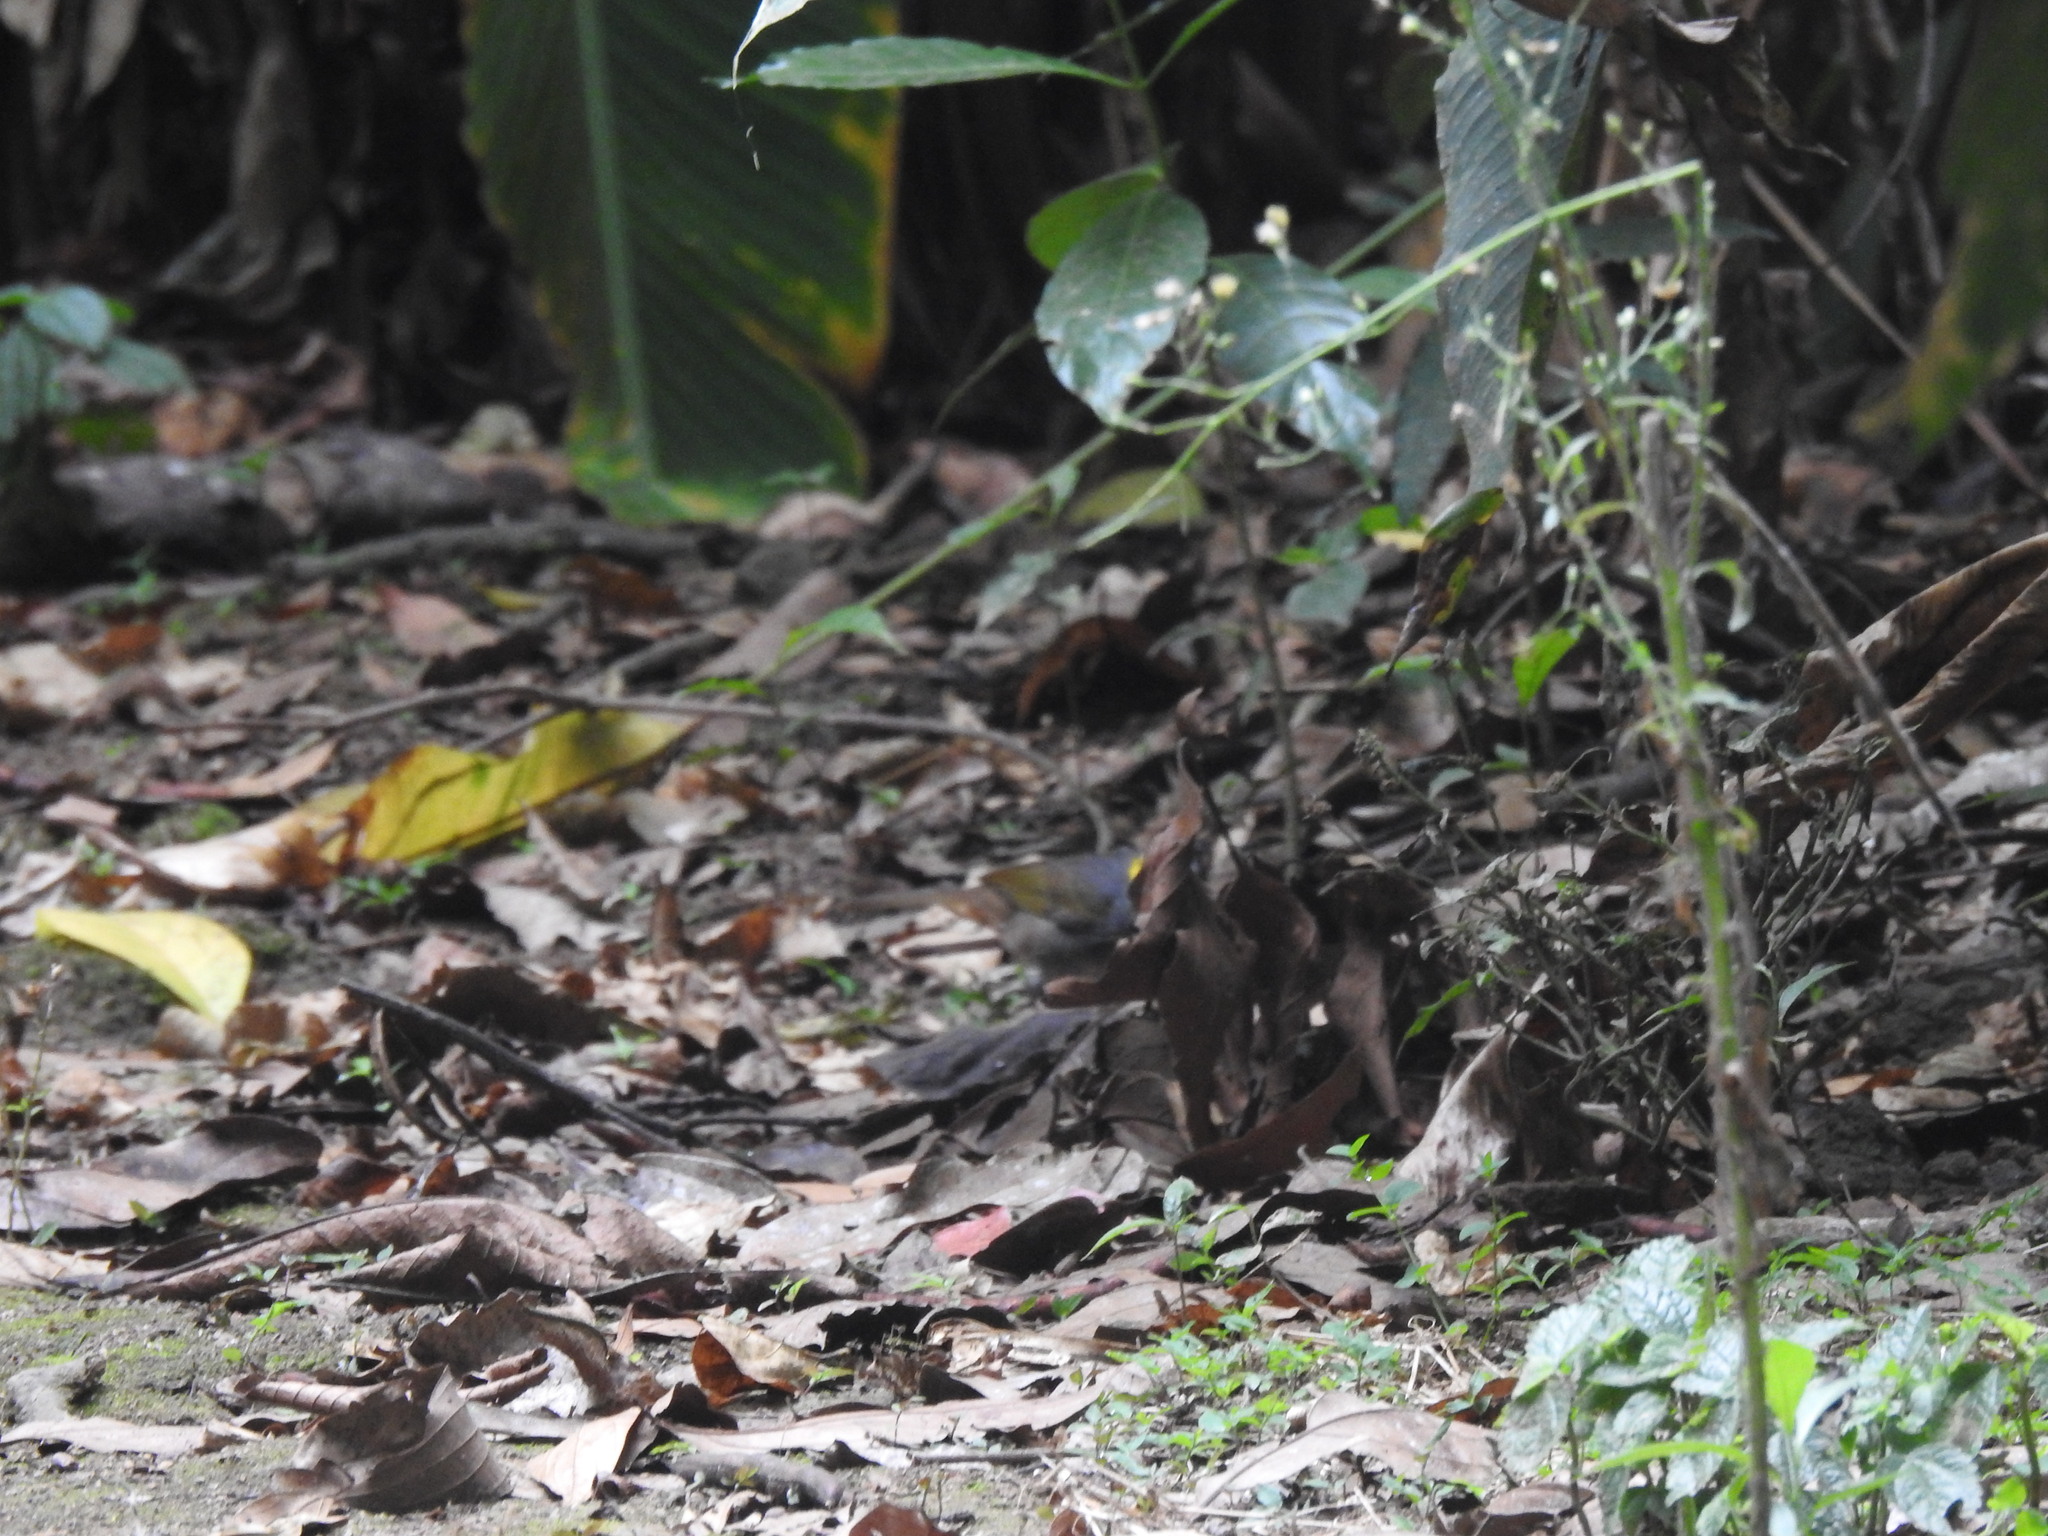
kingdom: Animalia
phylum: Chordata
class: Aves
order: Passeriformes
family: Passerellidae
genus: Melozone
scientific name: Melozone leucotis
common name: White-eared ground-sparrow
